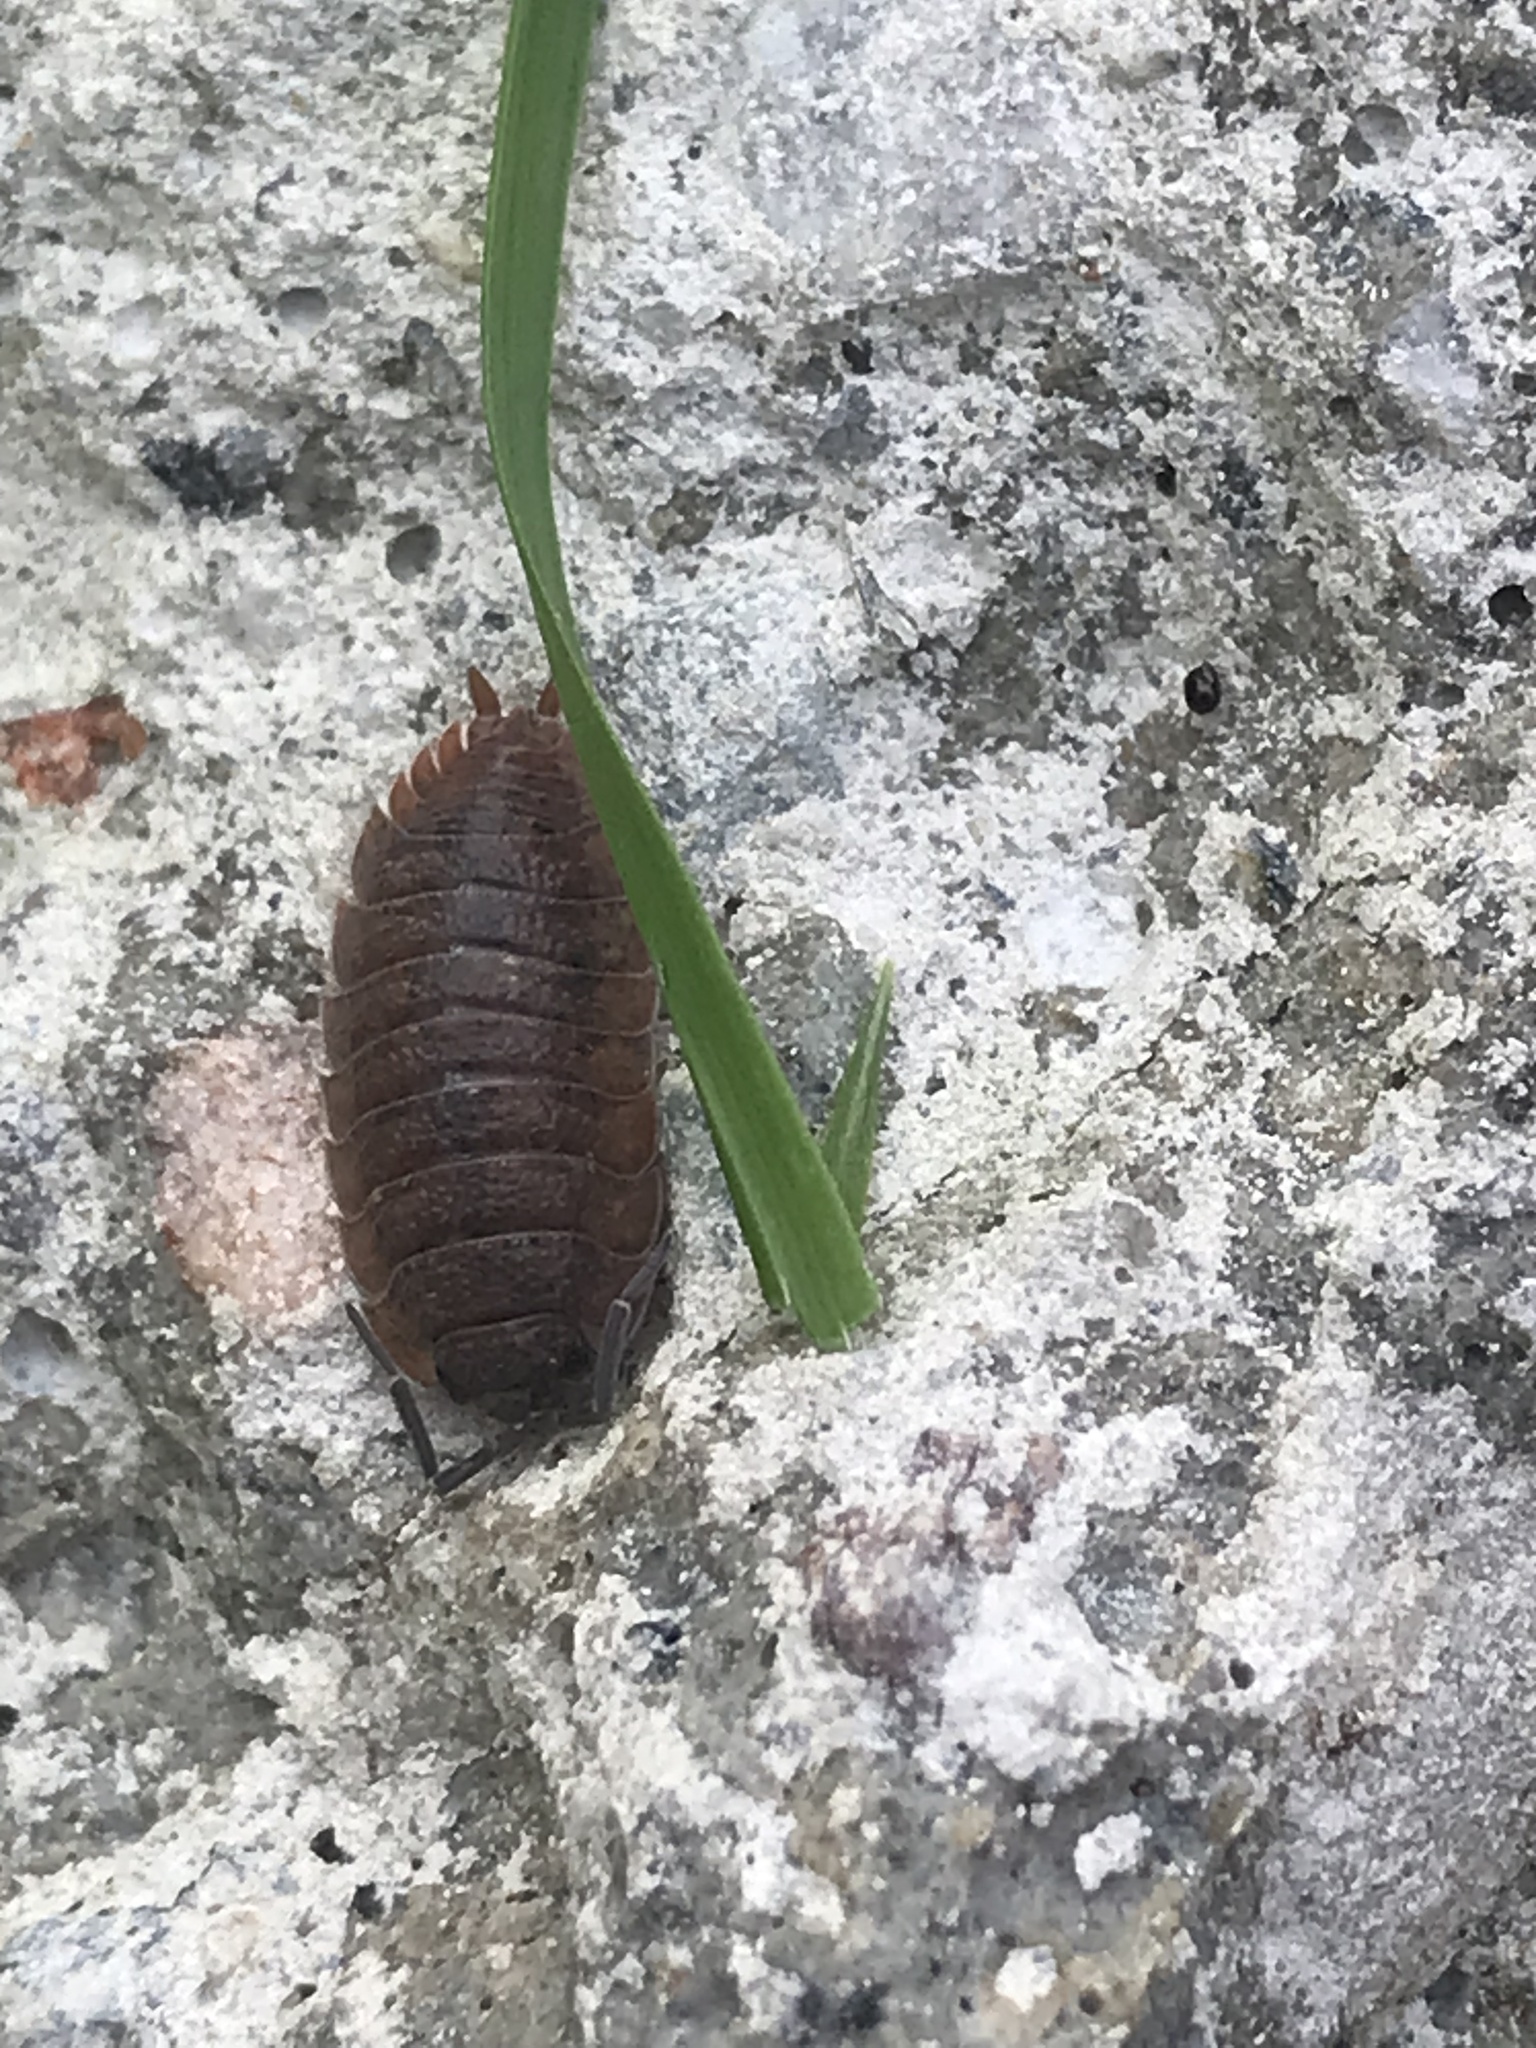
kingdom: Animalia
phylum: Arthropoda
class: Malacostraca
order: Isopoda
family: Porcellionidae
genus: Porcellio
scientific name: Porcellio scaber
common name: Common rough woodlouse
